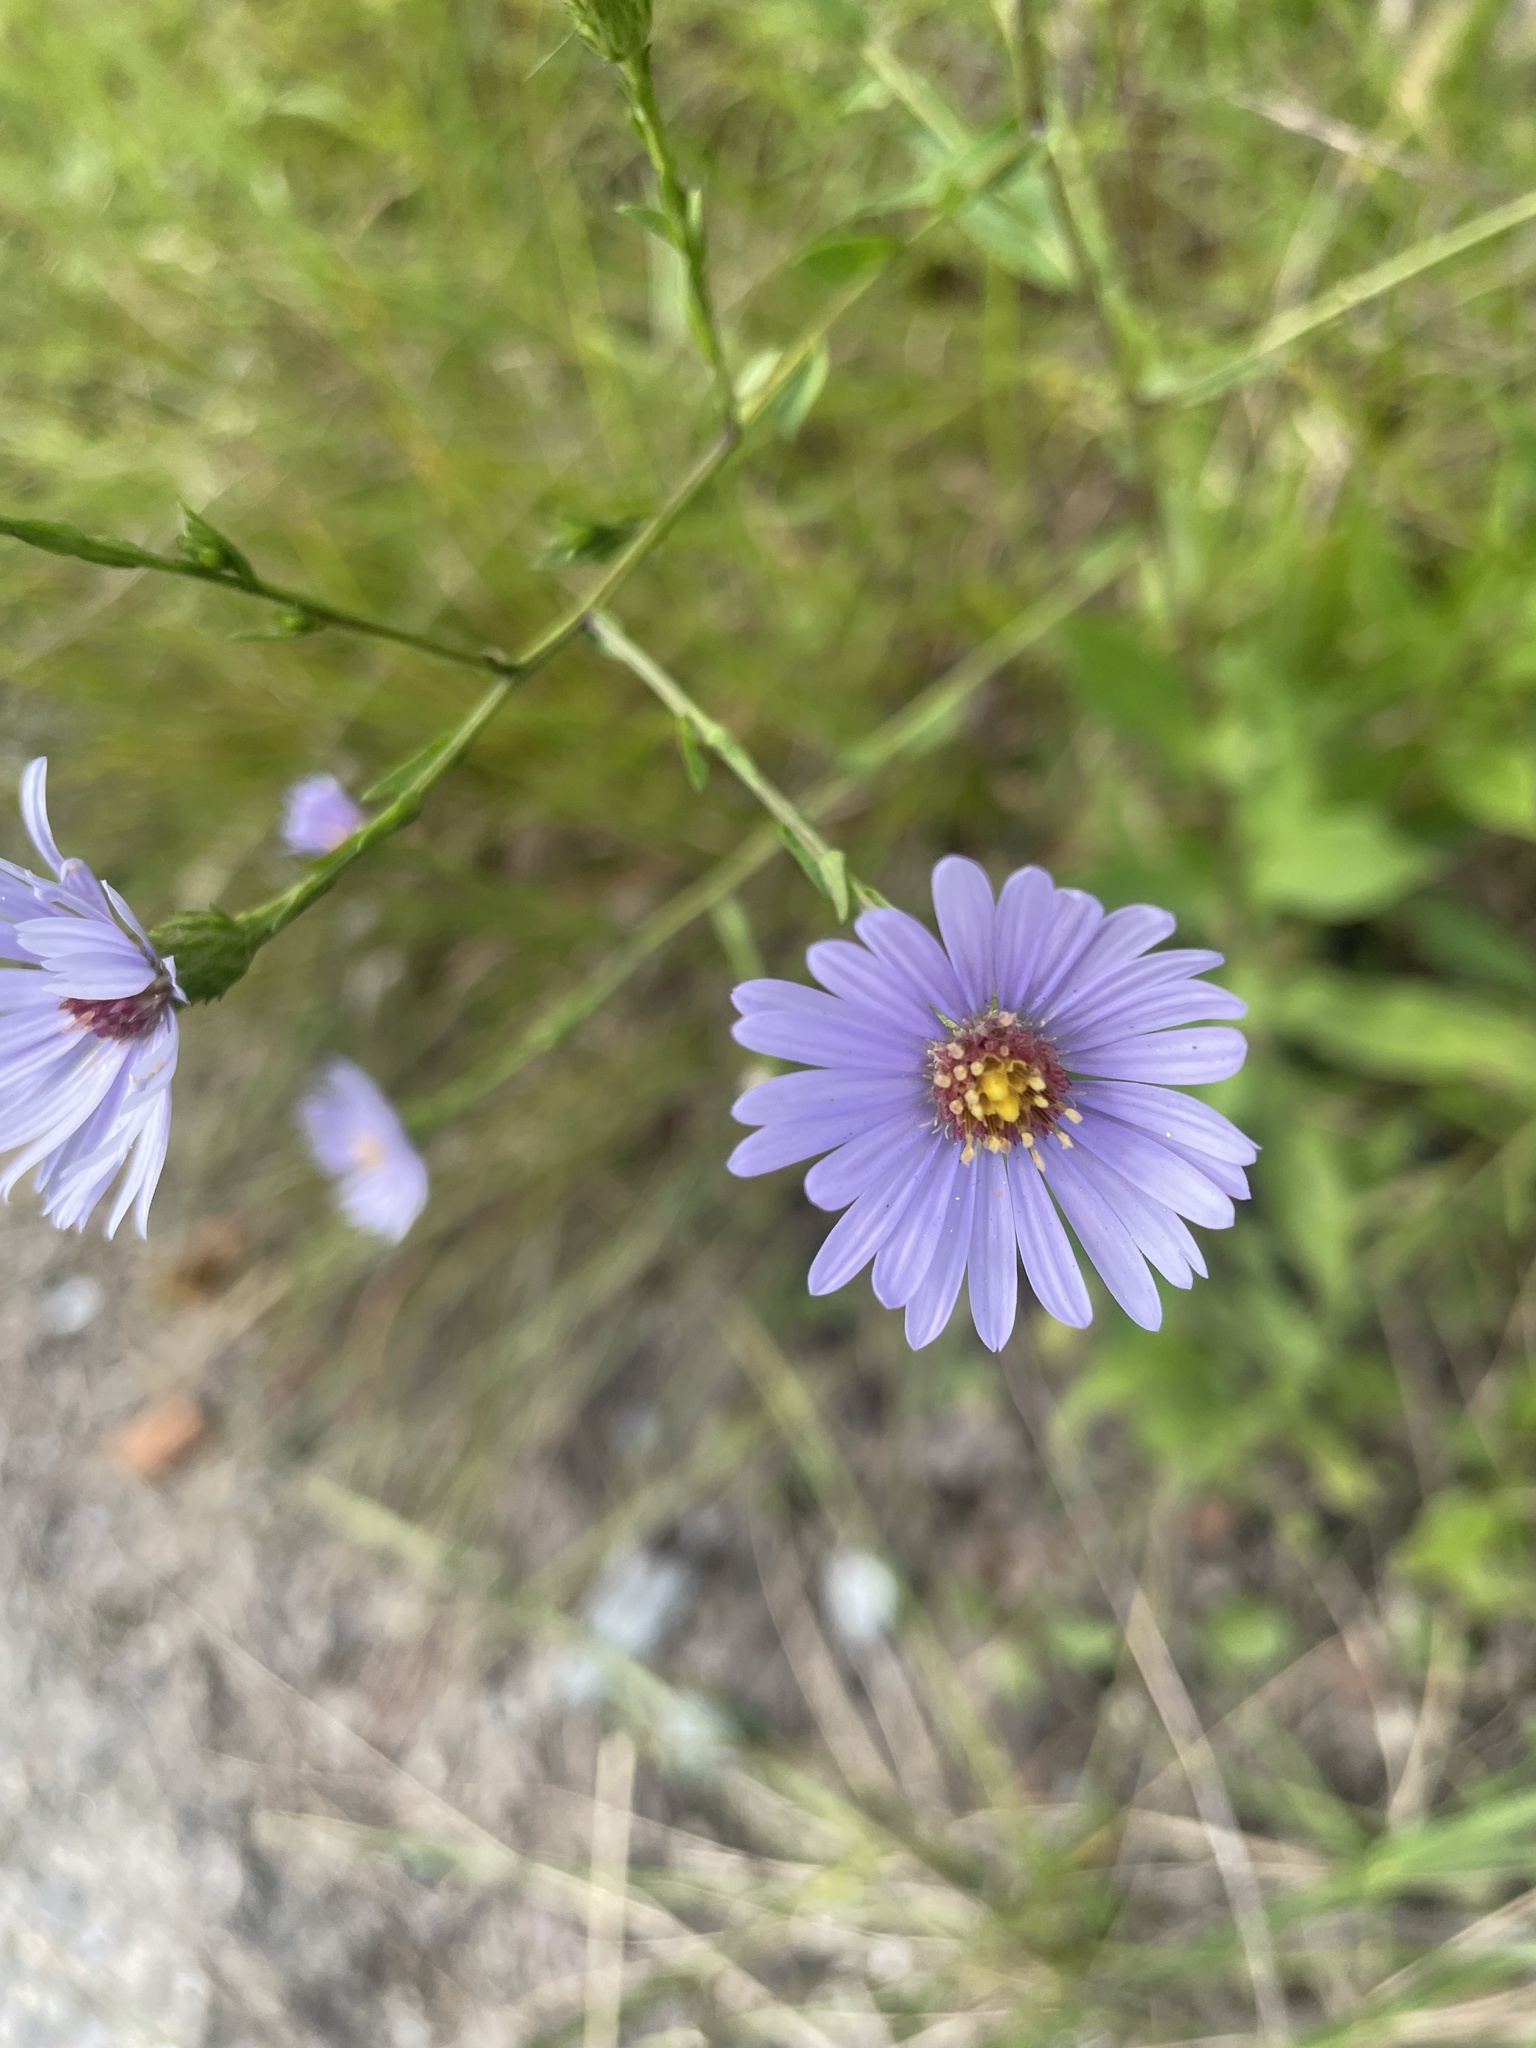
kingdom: Plantae
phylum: Tracheophyta
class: Magnoliopsida
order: Asterales
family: Asteraceae
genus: Symphyotrichum
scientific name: Symphyotrichum rhiannon
